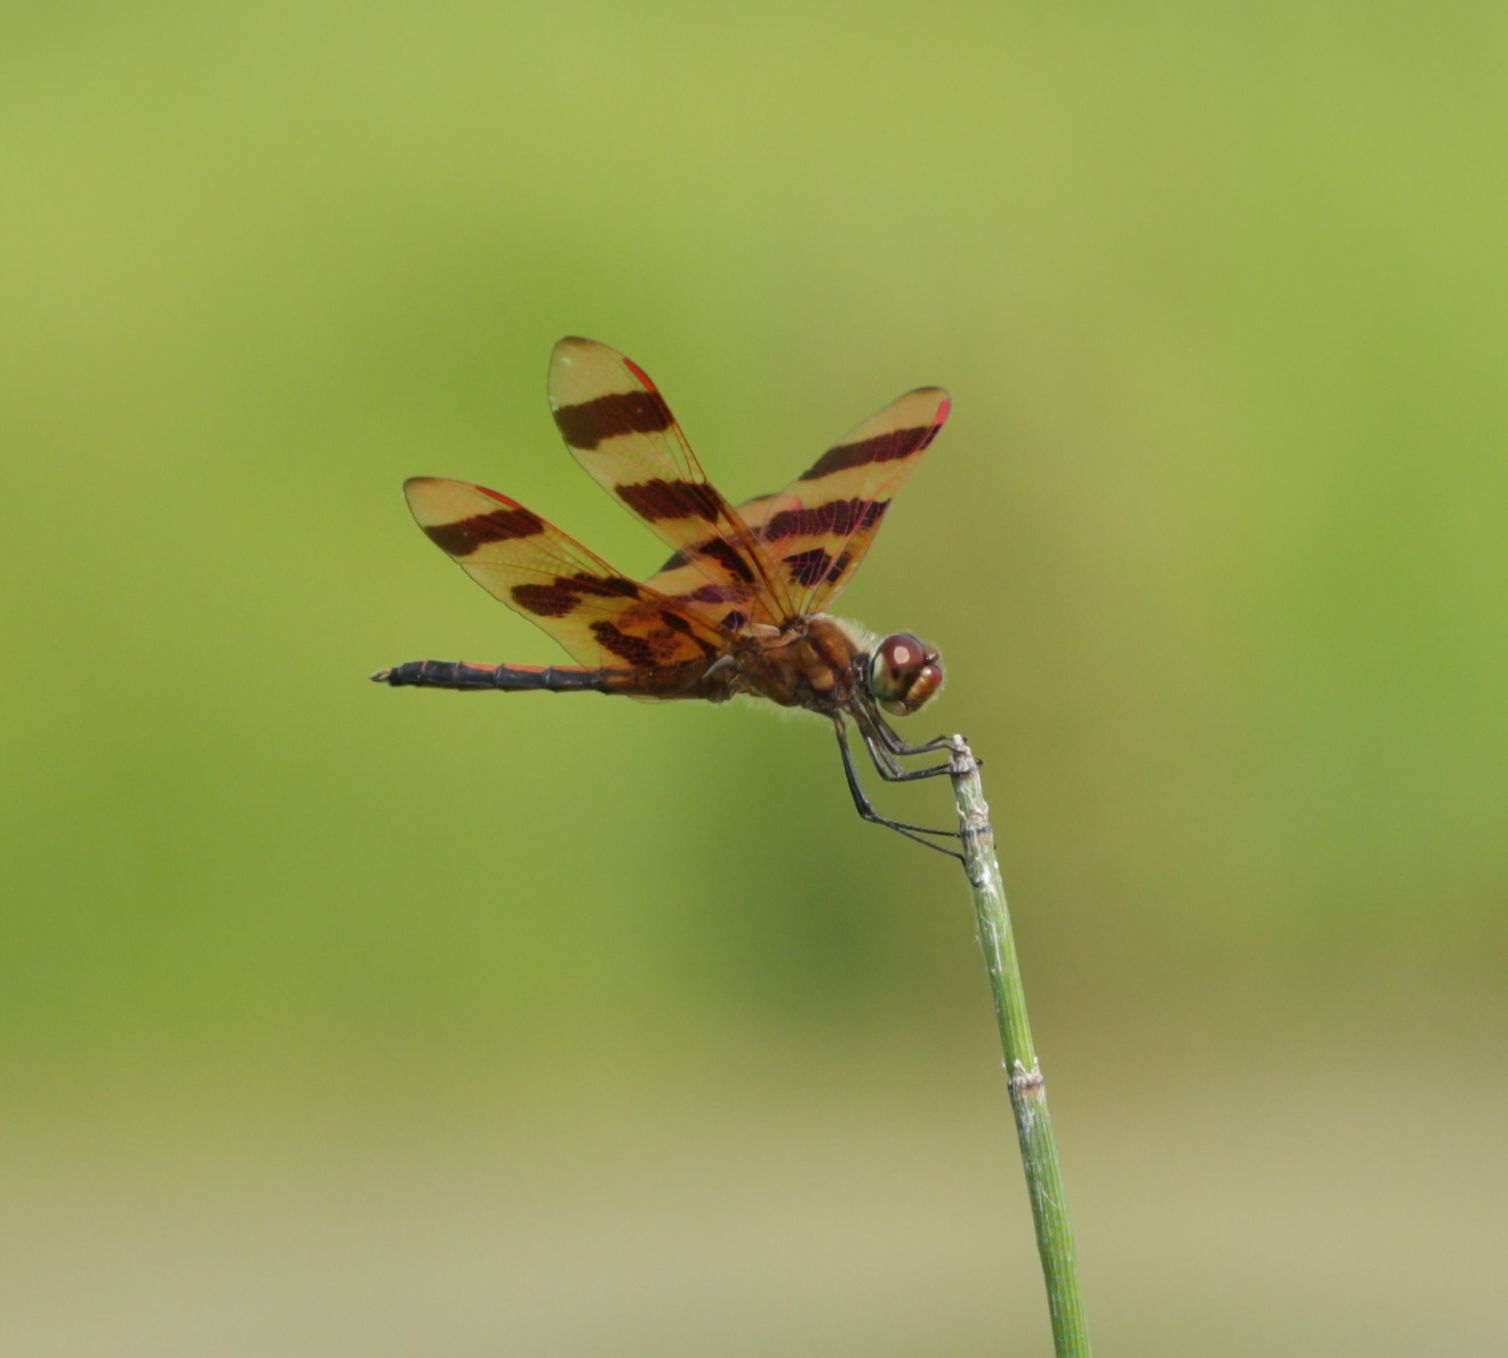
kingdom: Animalia
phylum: Arthropoda
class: Insecta
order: Odonata
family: Libellulidae
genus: Celithemis
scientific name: Celithemis eponina
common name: Halloween pennant
